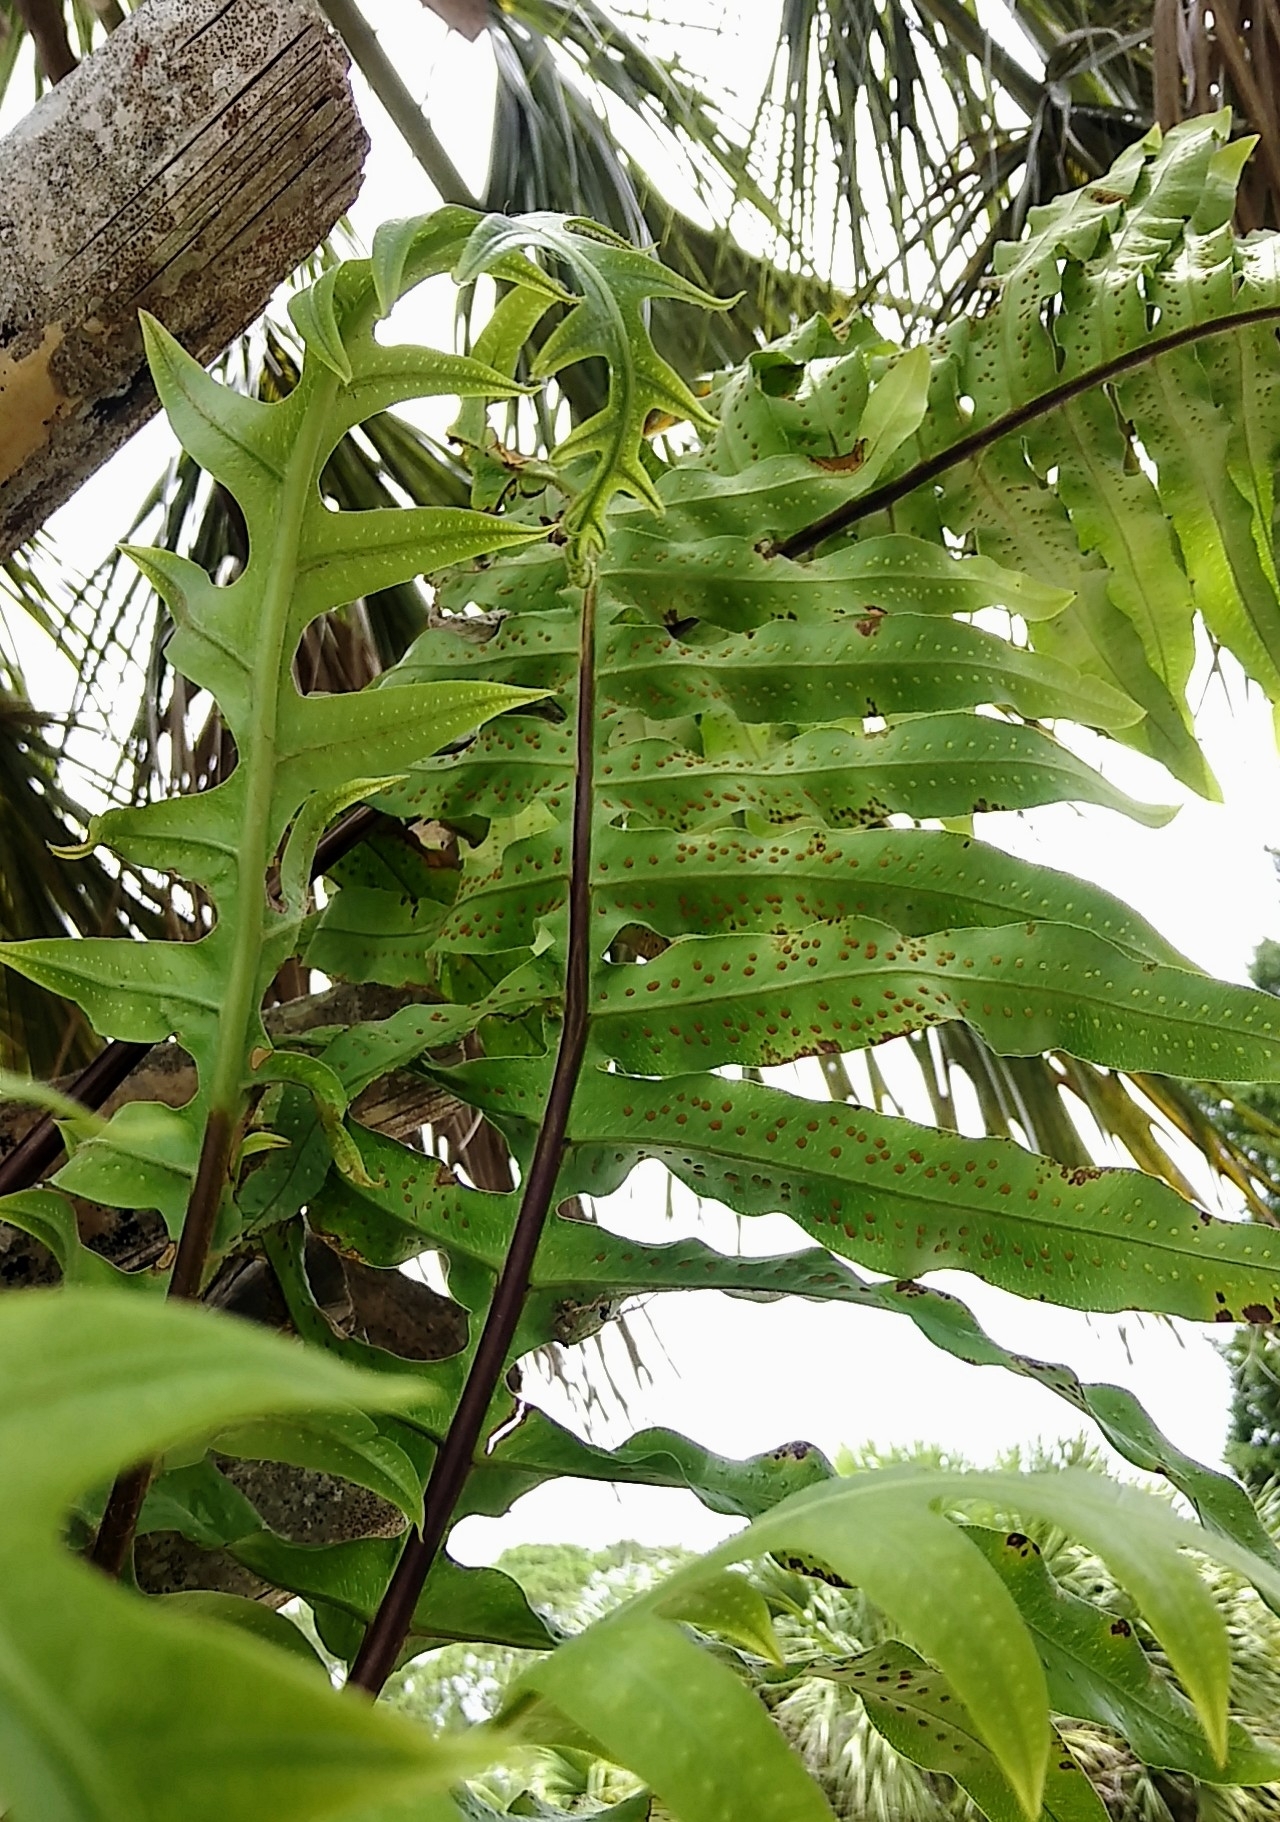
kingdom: Plantae
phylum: Tracheophyta
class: Polypodiopsida
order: Polypodiales
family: Polypodiaceae
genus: Phlebodium
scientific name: Phlebodium aureum
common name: Gold-foot fern
